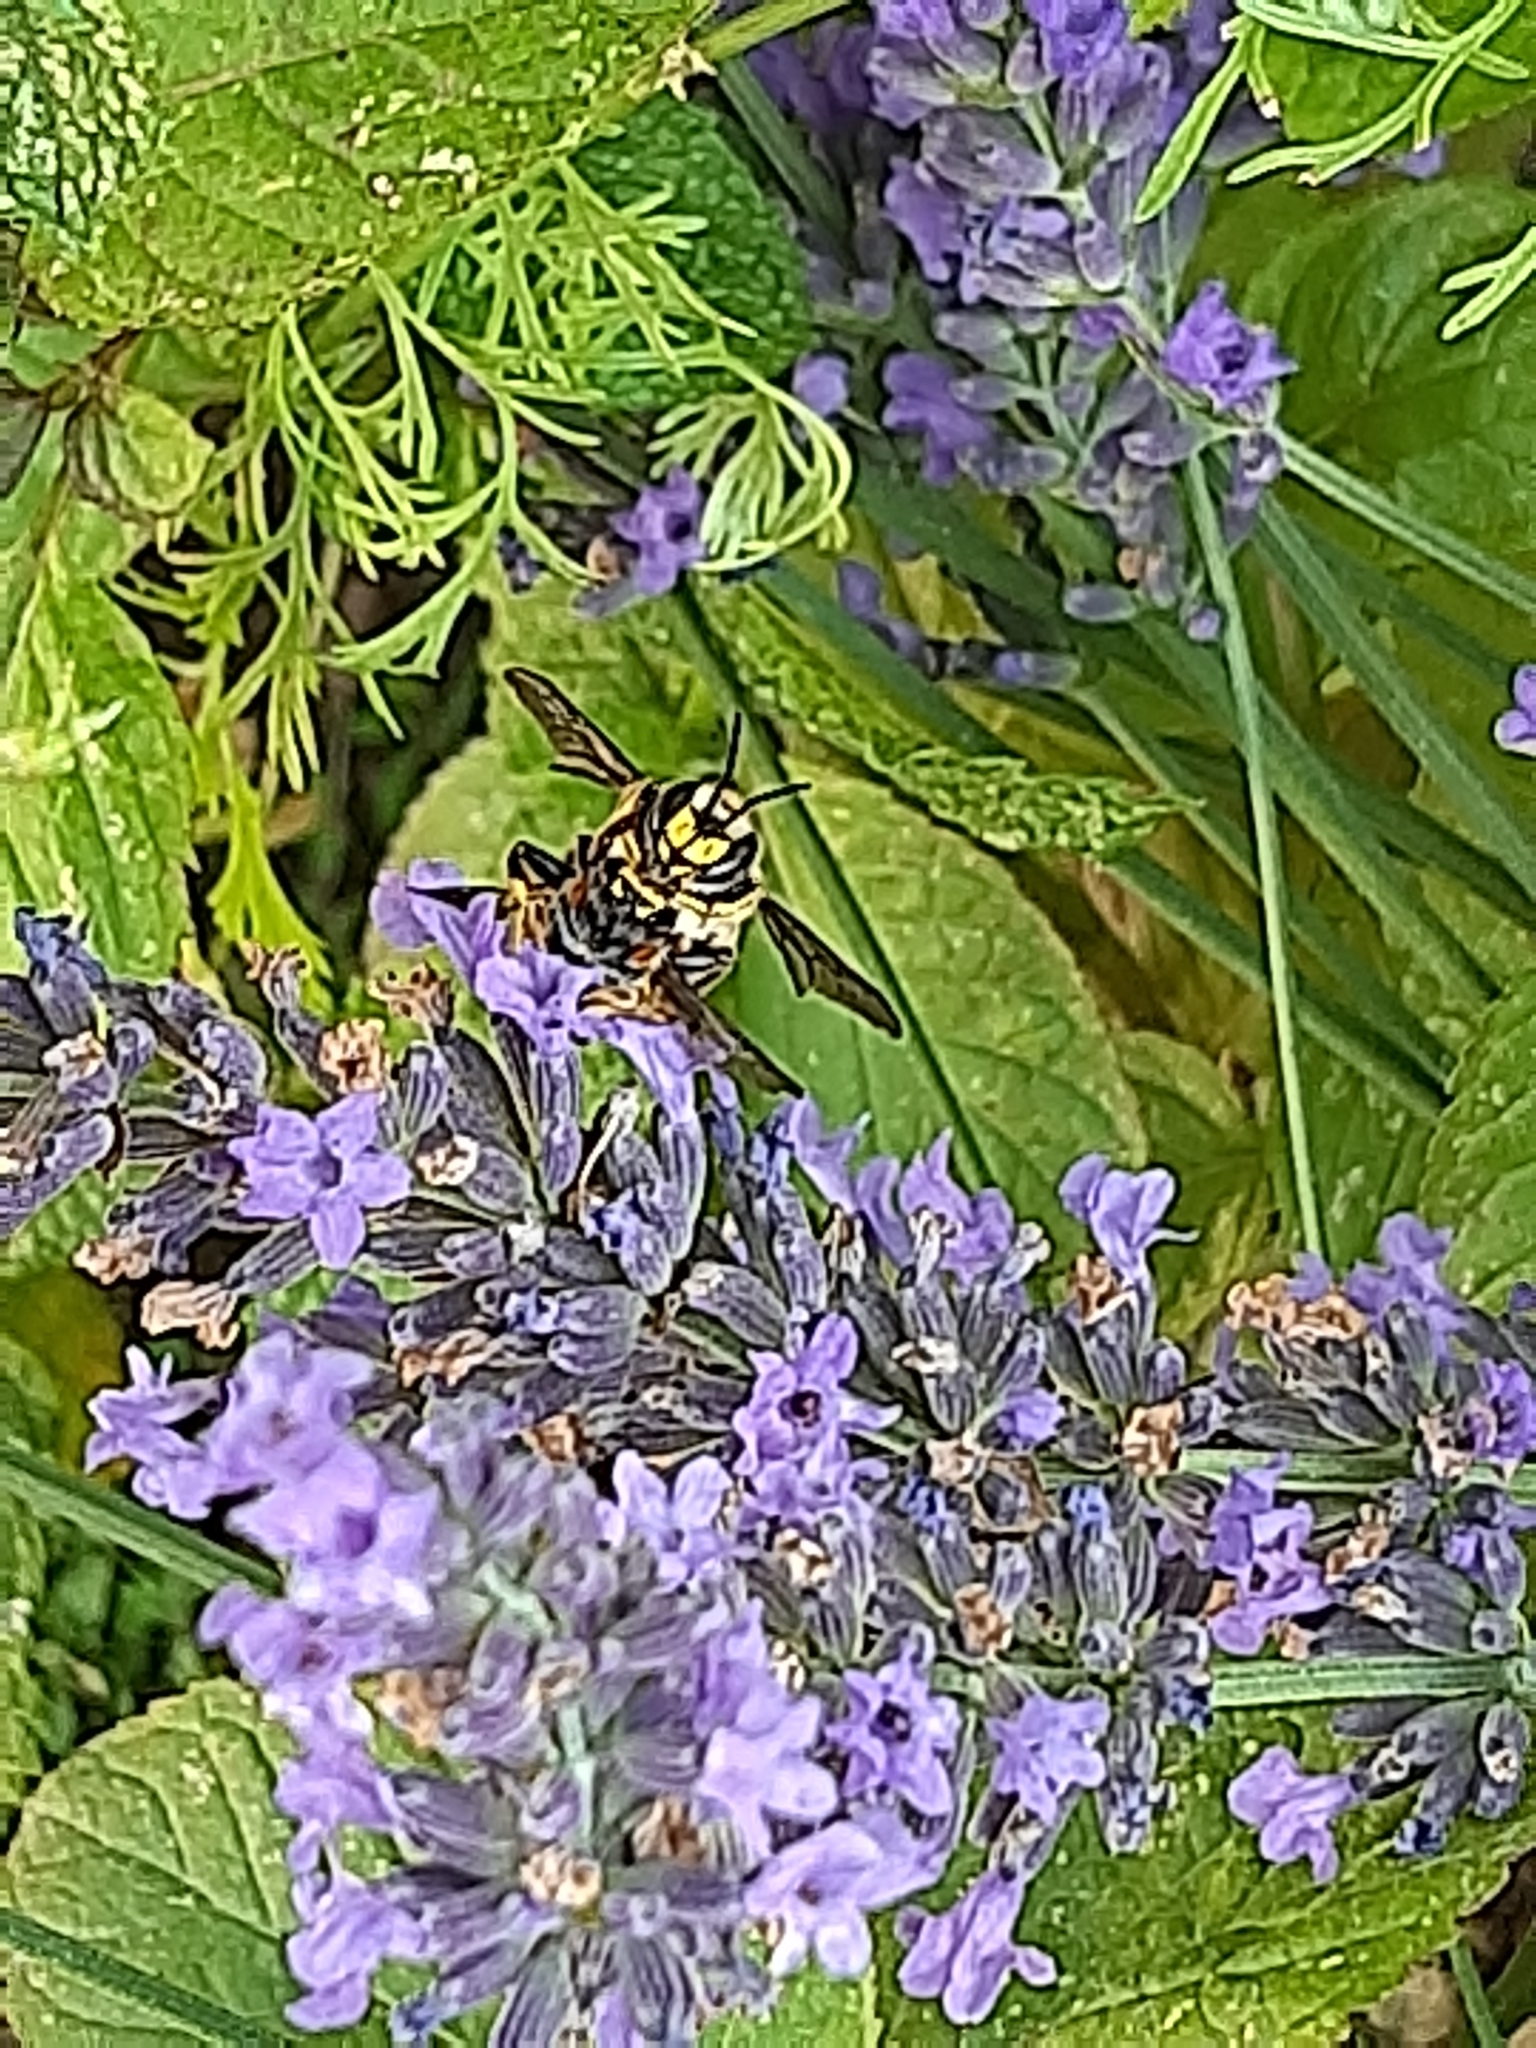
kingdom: Animalia
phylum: Arthropoda
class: Insecta
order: Hymenoptera
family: Megachilidae
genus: Anthidium
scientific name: Anthidium manicatum
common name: Wool carder bee
